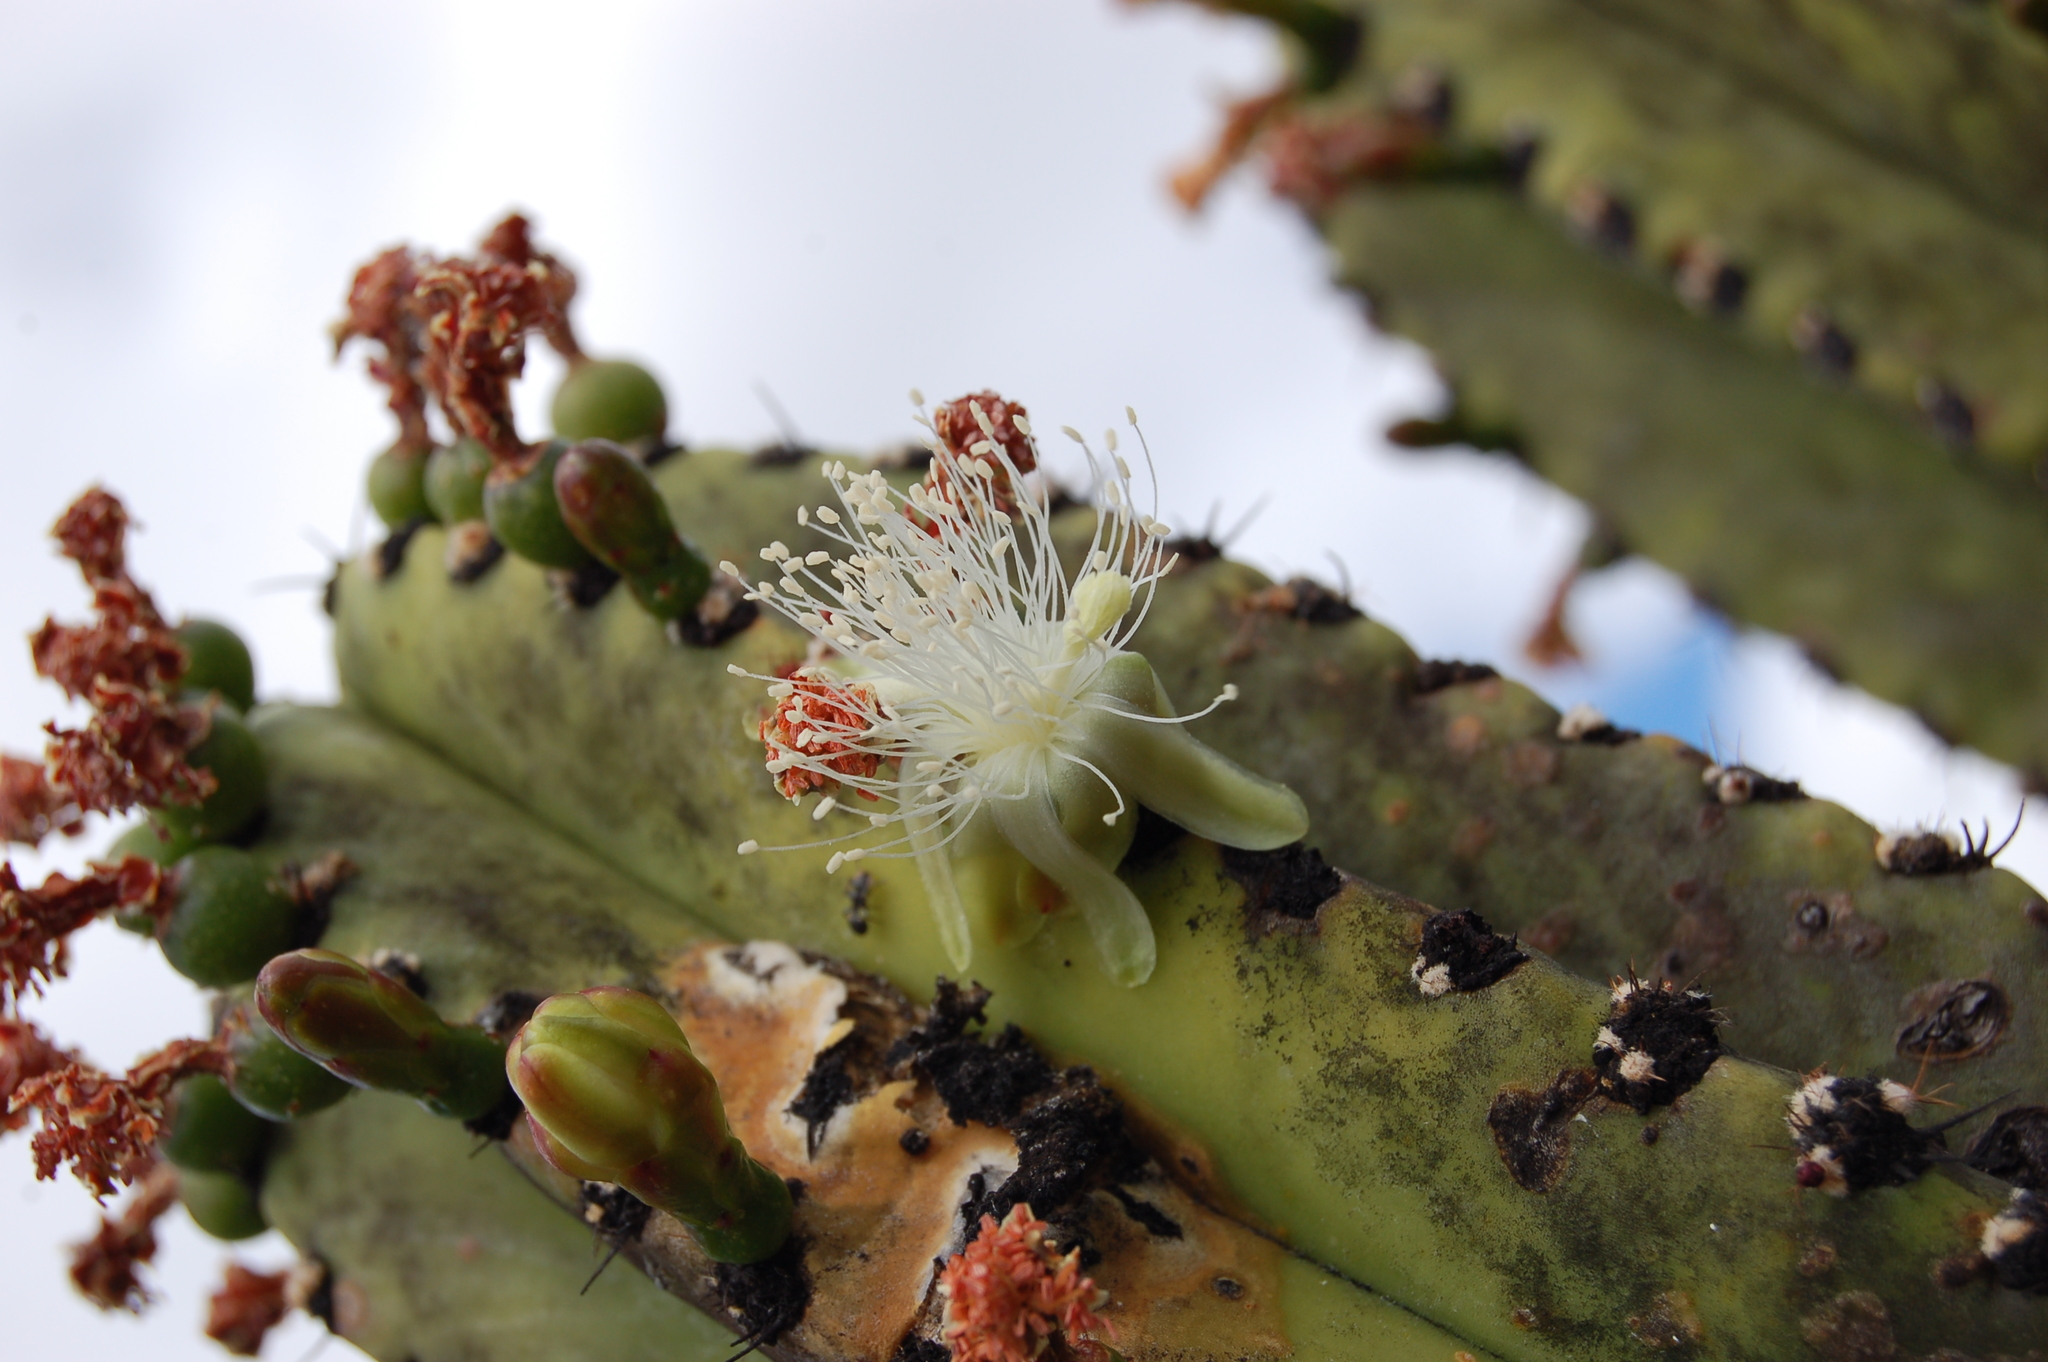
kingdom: Plantae
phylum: Tracheophyta
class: Magnoliopsida
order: Caryophyllales
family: Cactaceae
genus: Myrtillocactus
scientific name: Myrtillocactus schenckii
